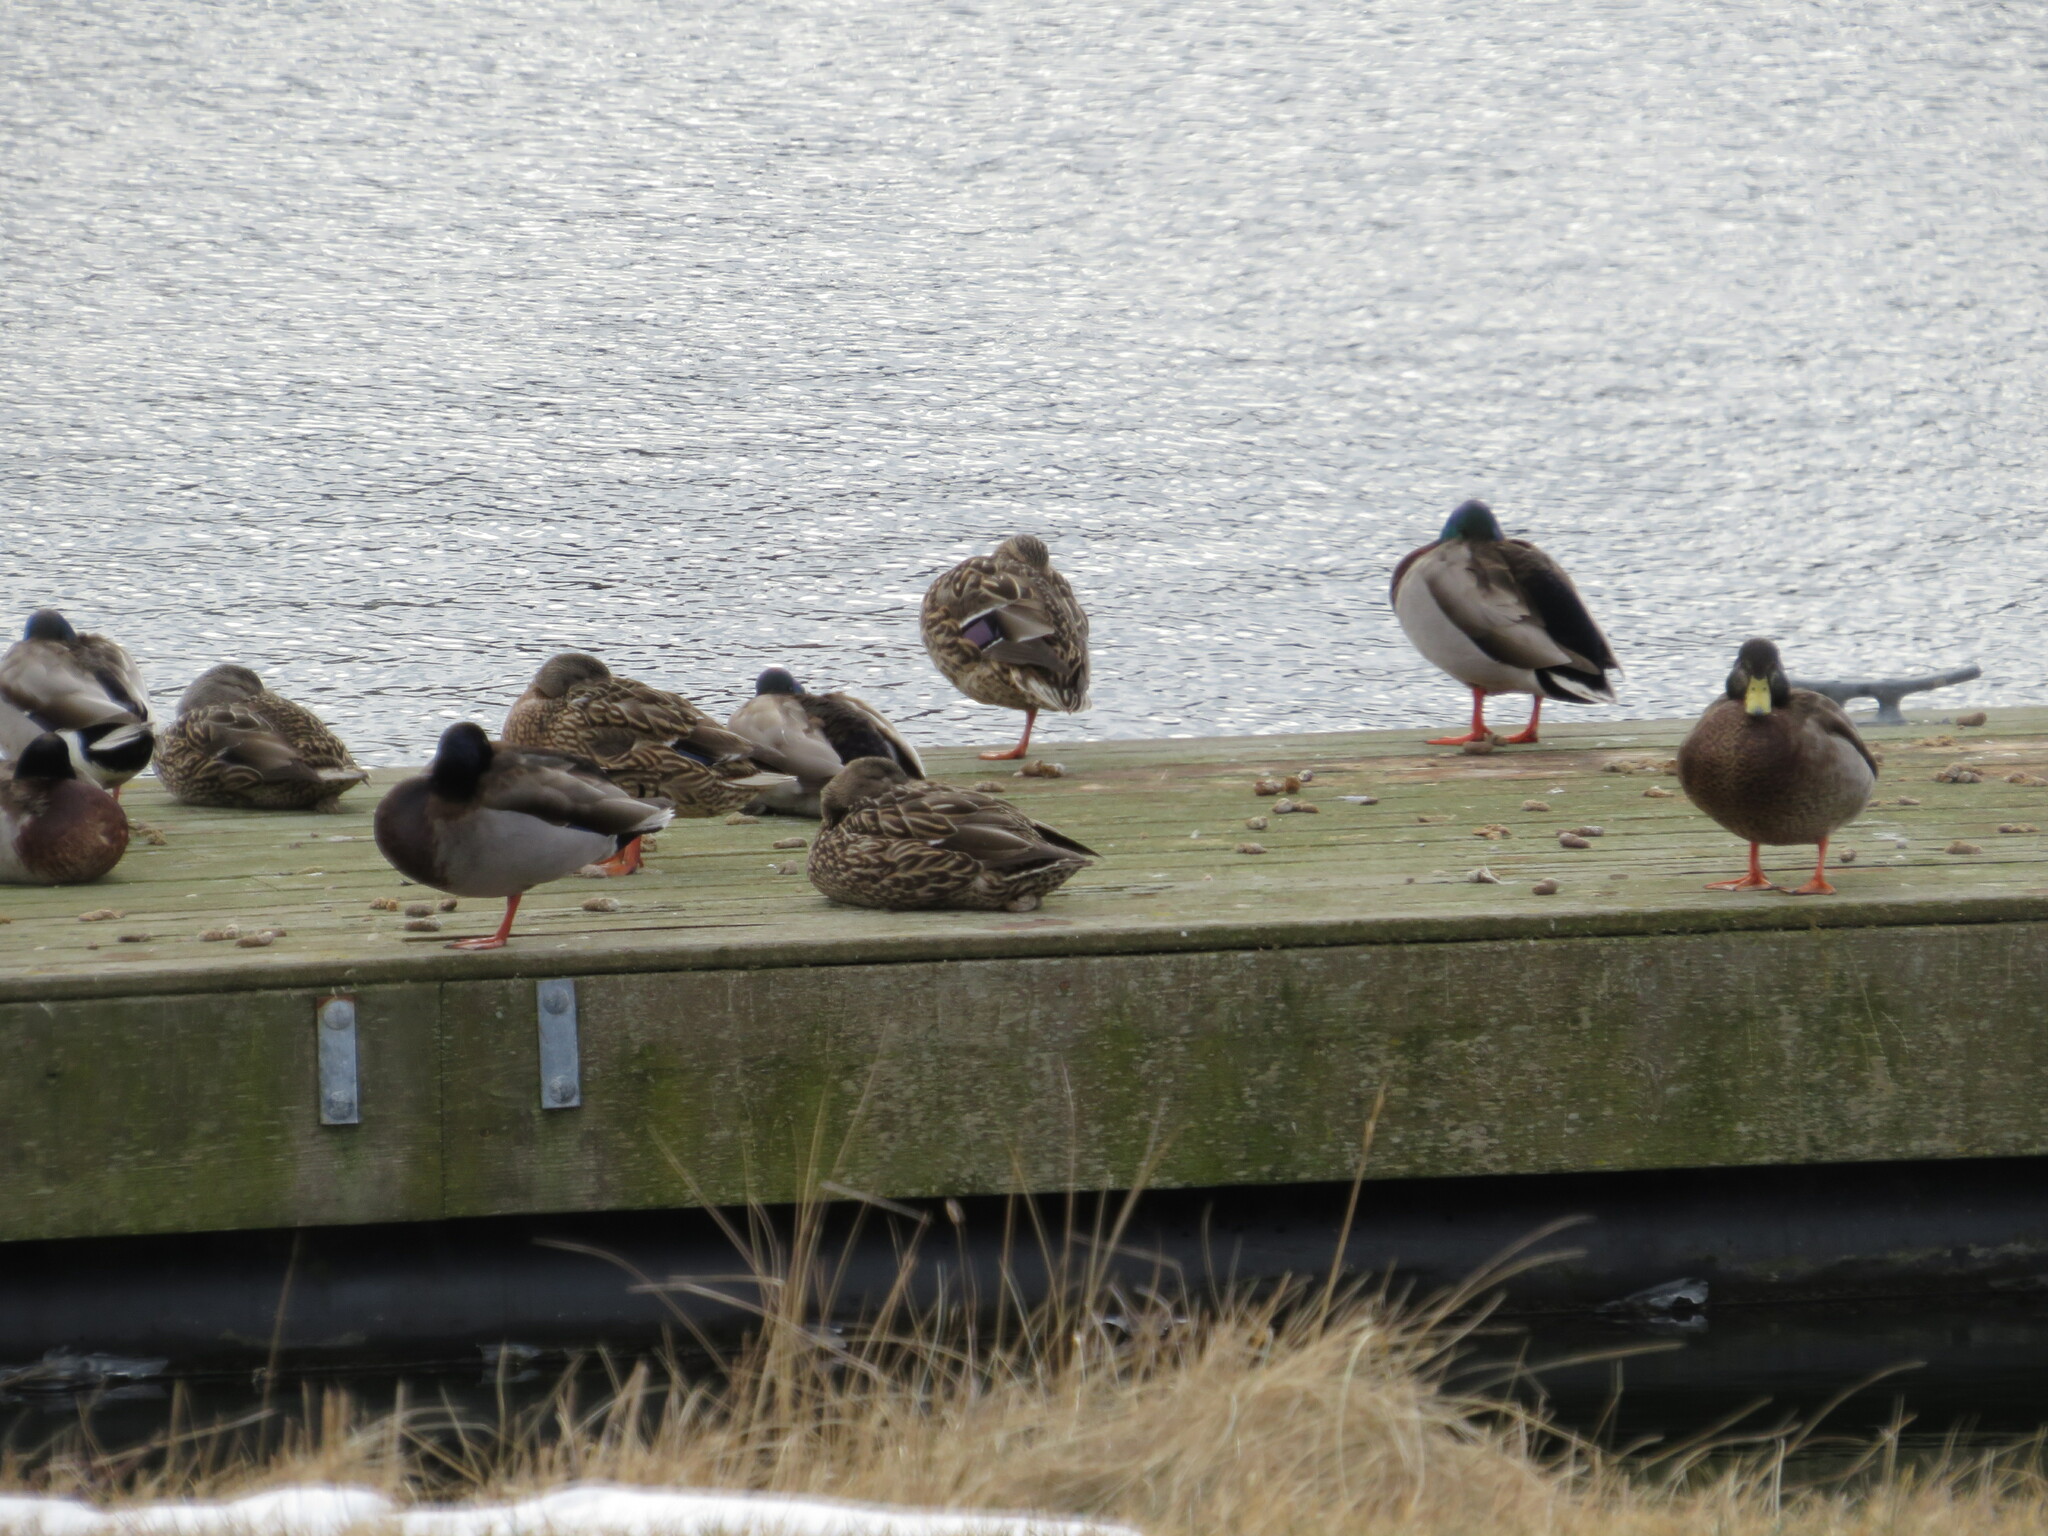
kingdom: Animalia
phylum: Chordata
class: Aves
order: Anseriformes
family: Anatidae
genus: Anas
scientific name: Anas platyrhynchos
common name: Mallard
